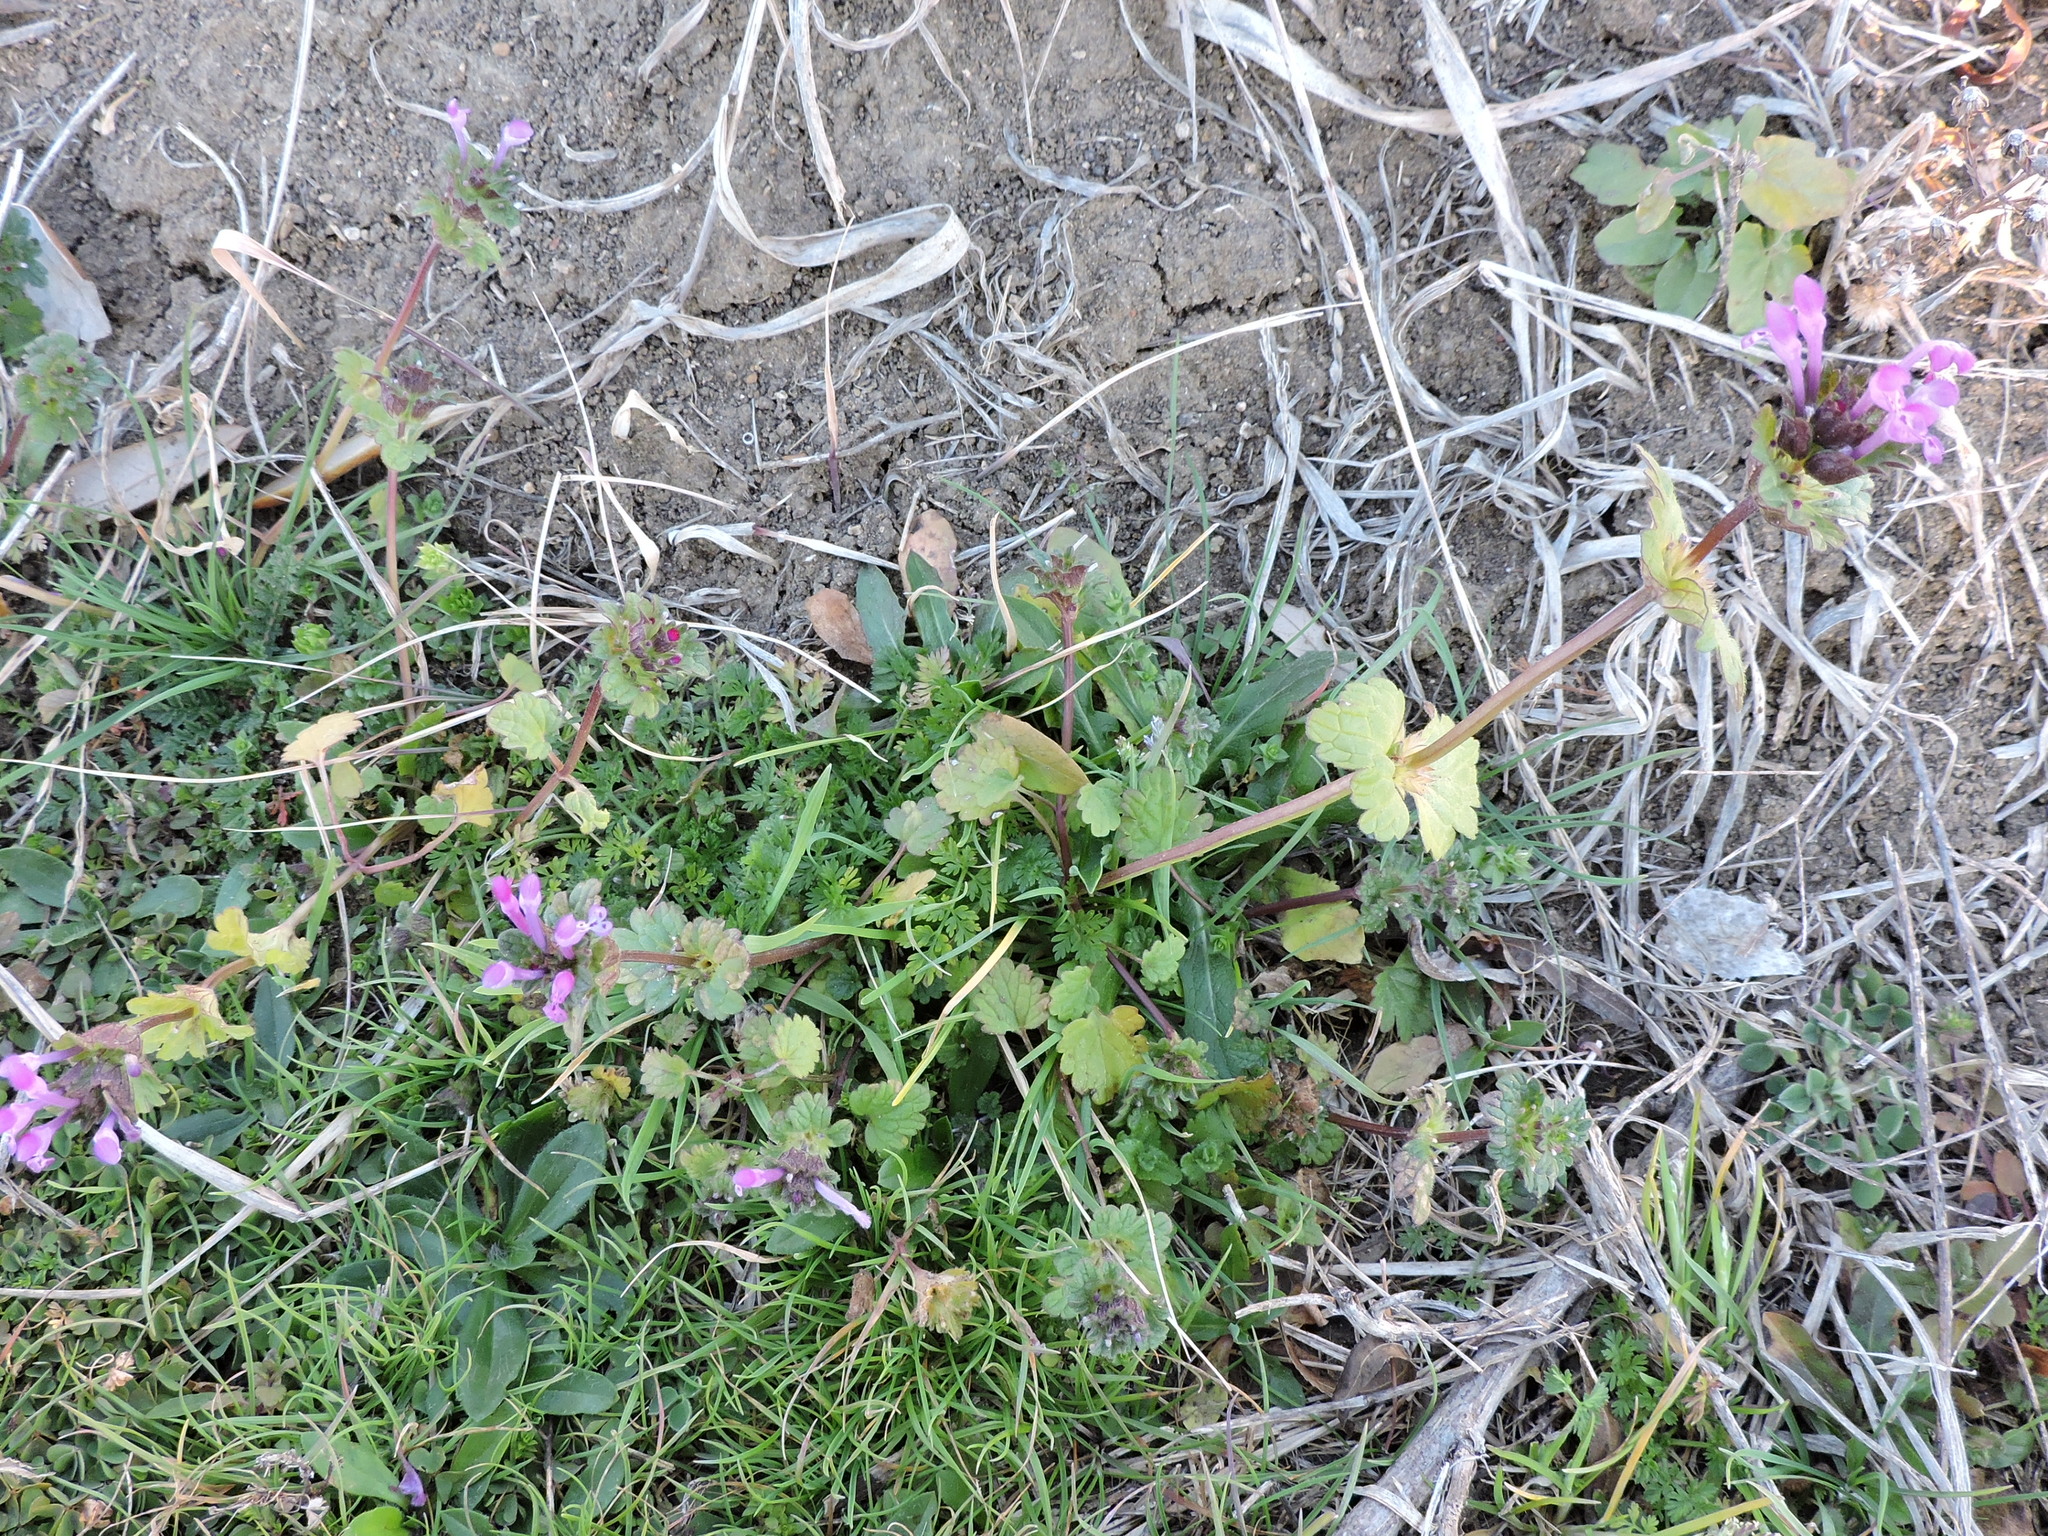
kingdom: Plantae
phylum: Tracheophyta
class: Magnoliopsida
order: Lamiales
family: Lamiaceae
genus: Lamium
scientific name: Lamium amplexicaule
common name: Henbit dead-nettle
